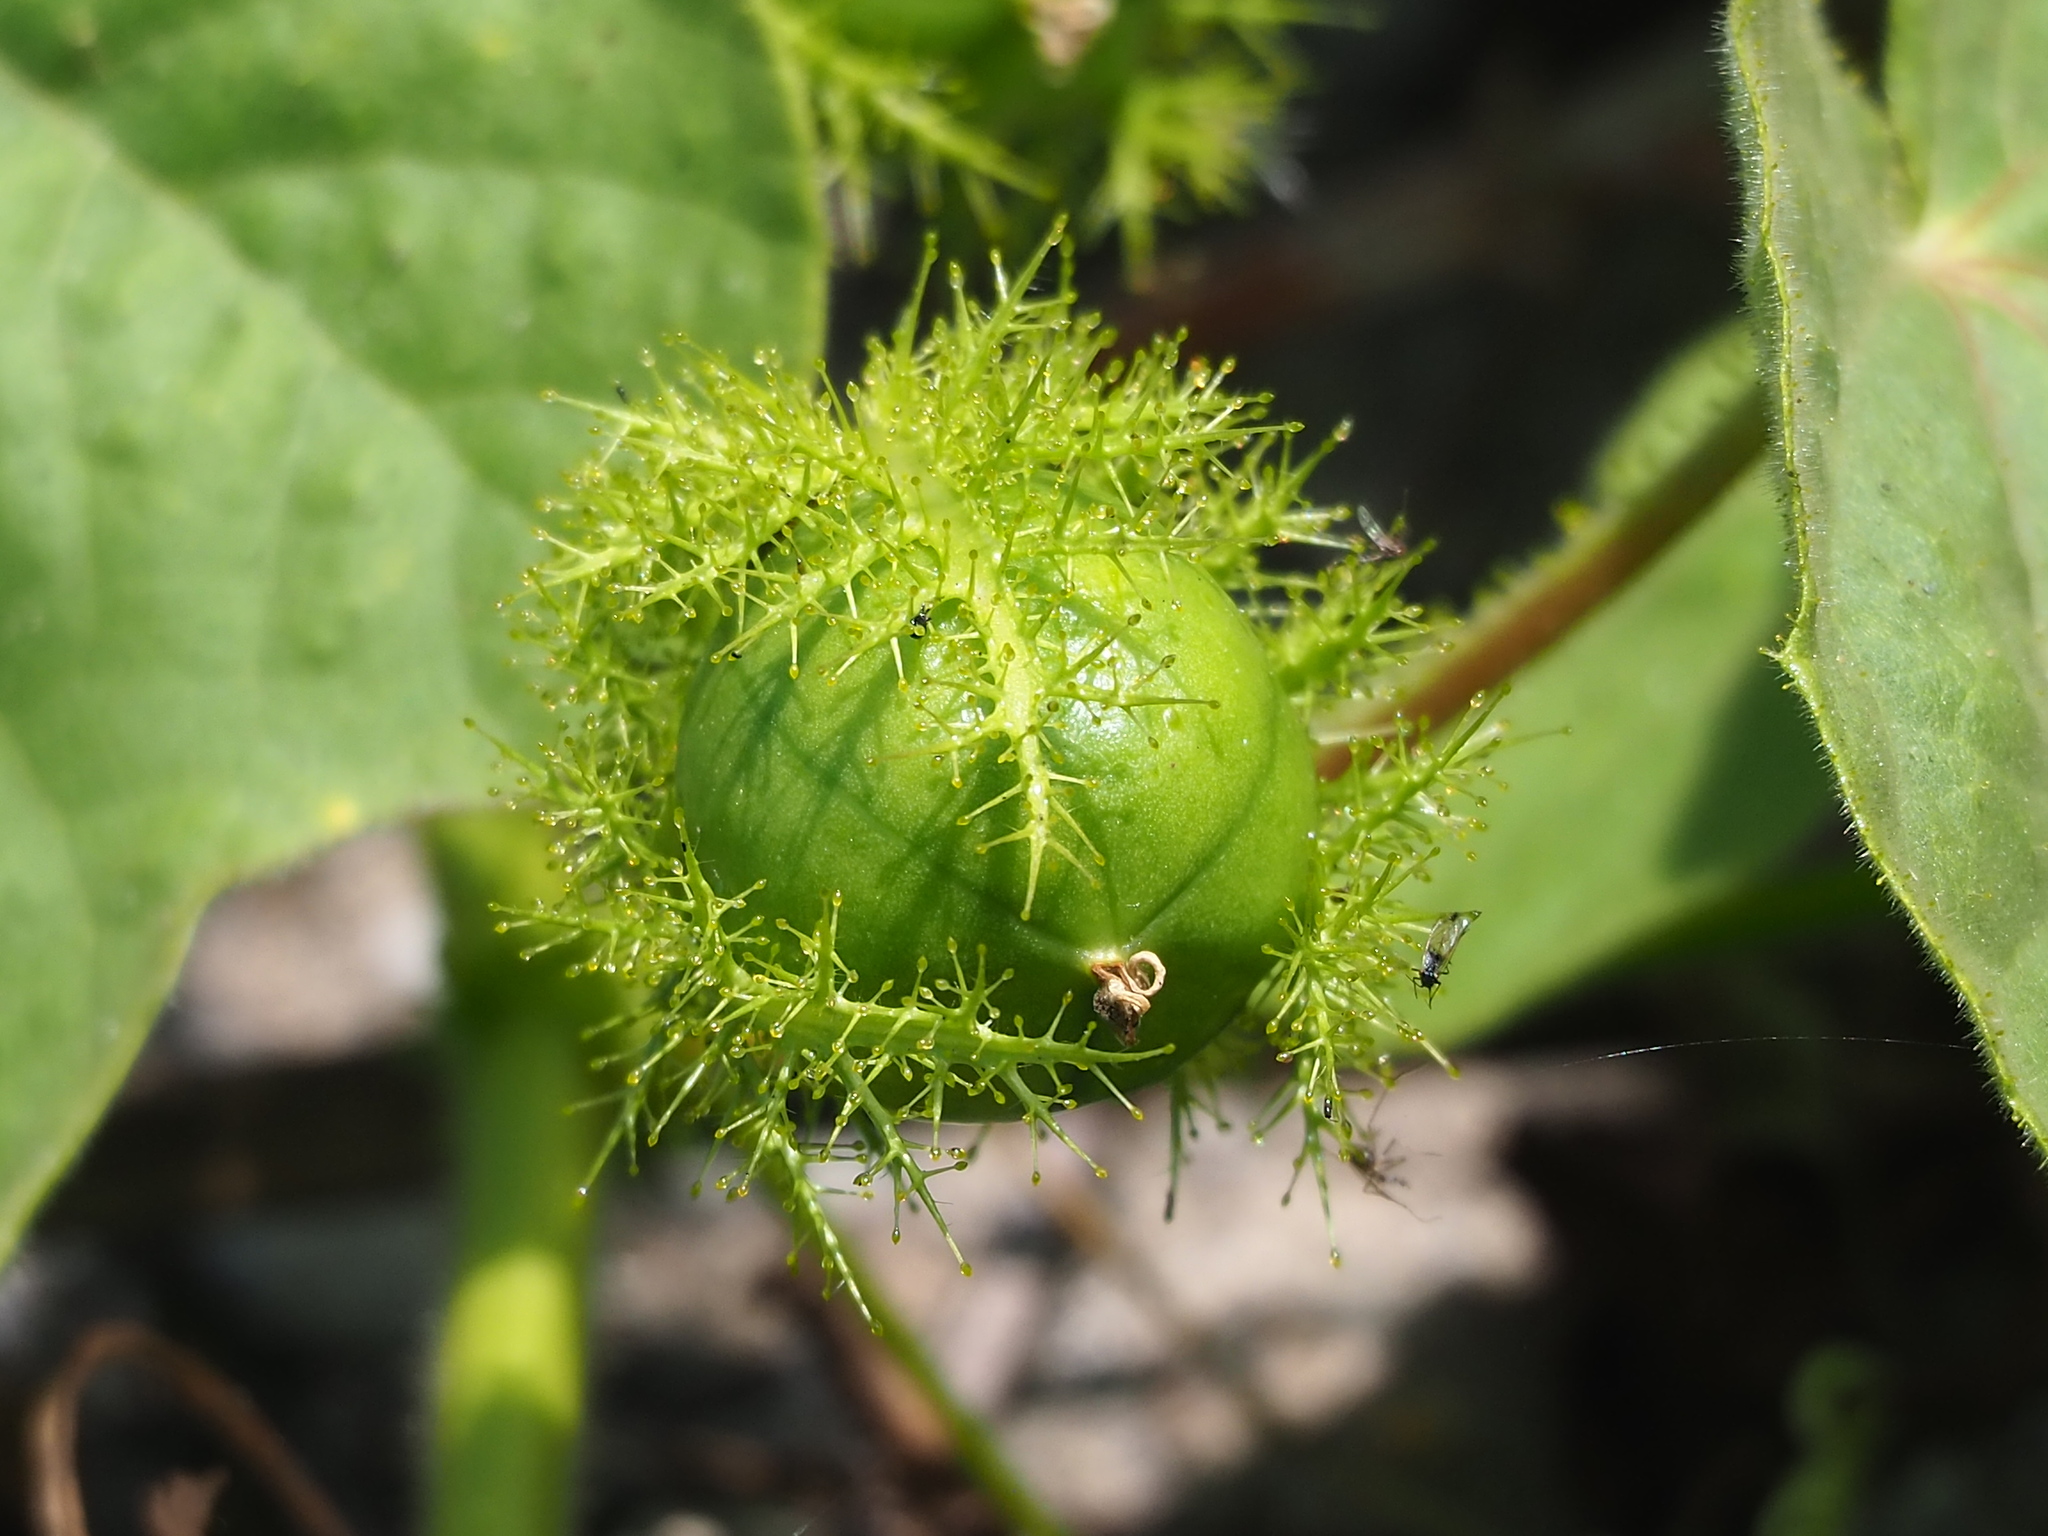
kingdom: Plantae
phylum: Tracheophyta
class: Magnoliopsida
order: Malpighiales
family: Passifloraceae
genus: Passiflora
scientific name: Passiflora vesicaria
